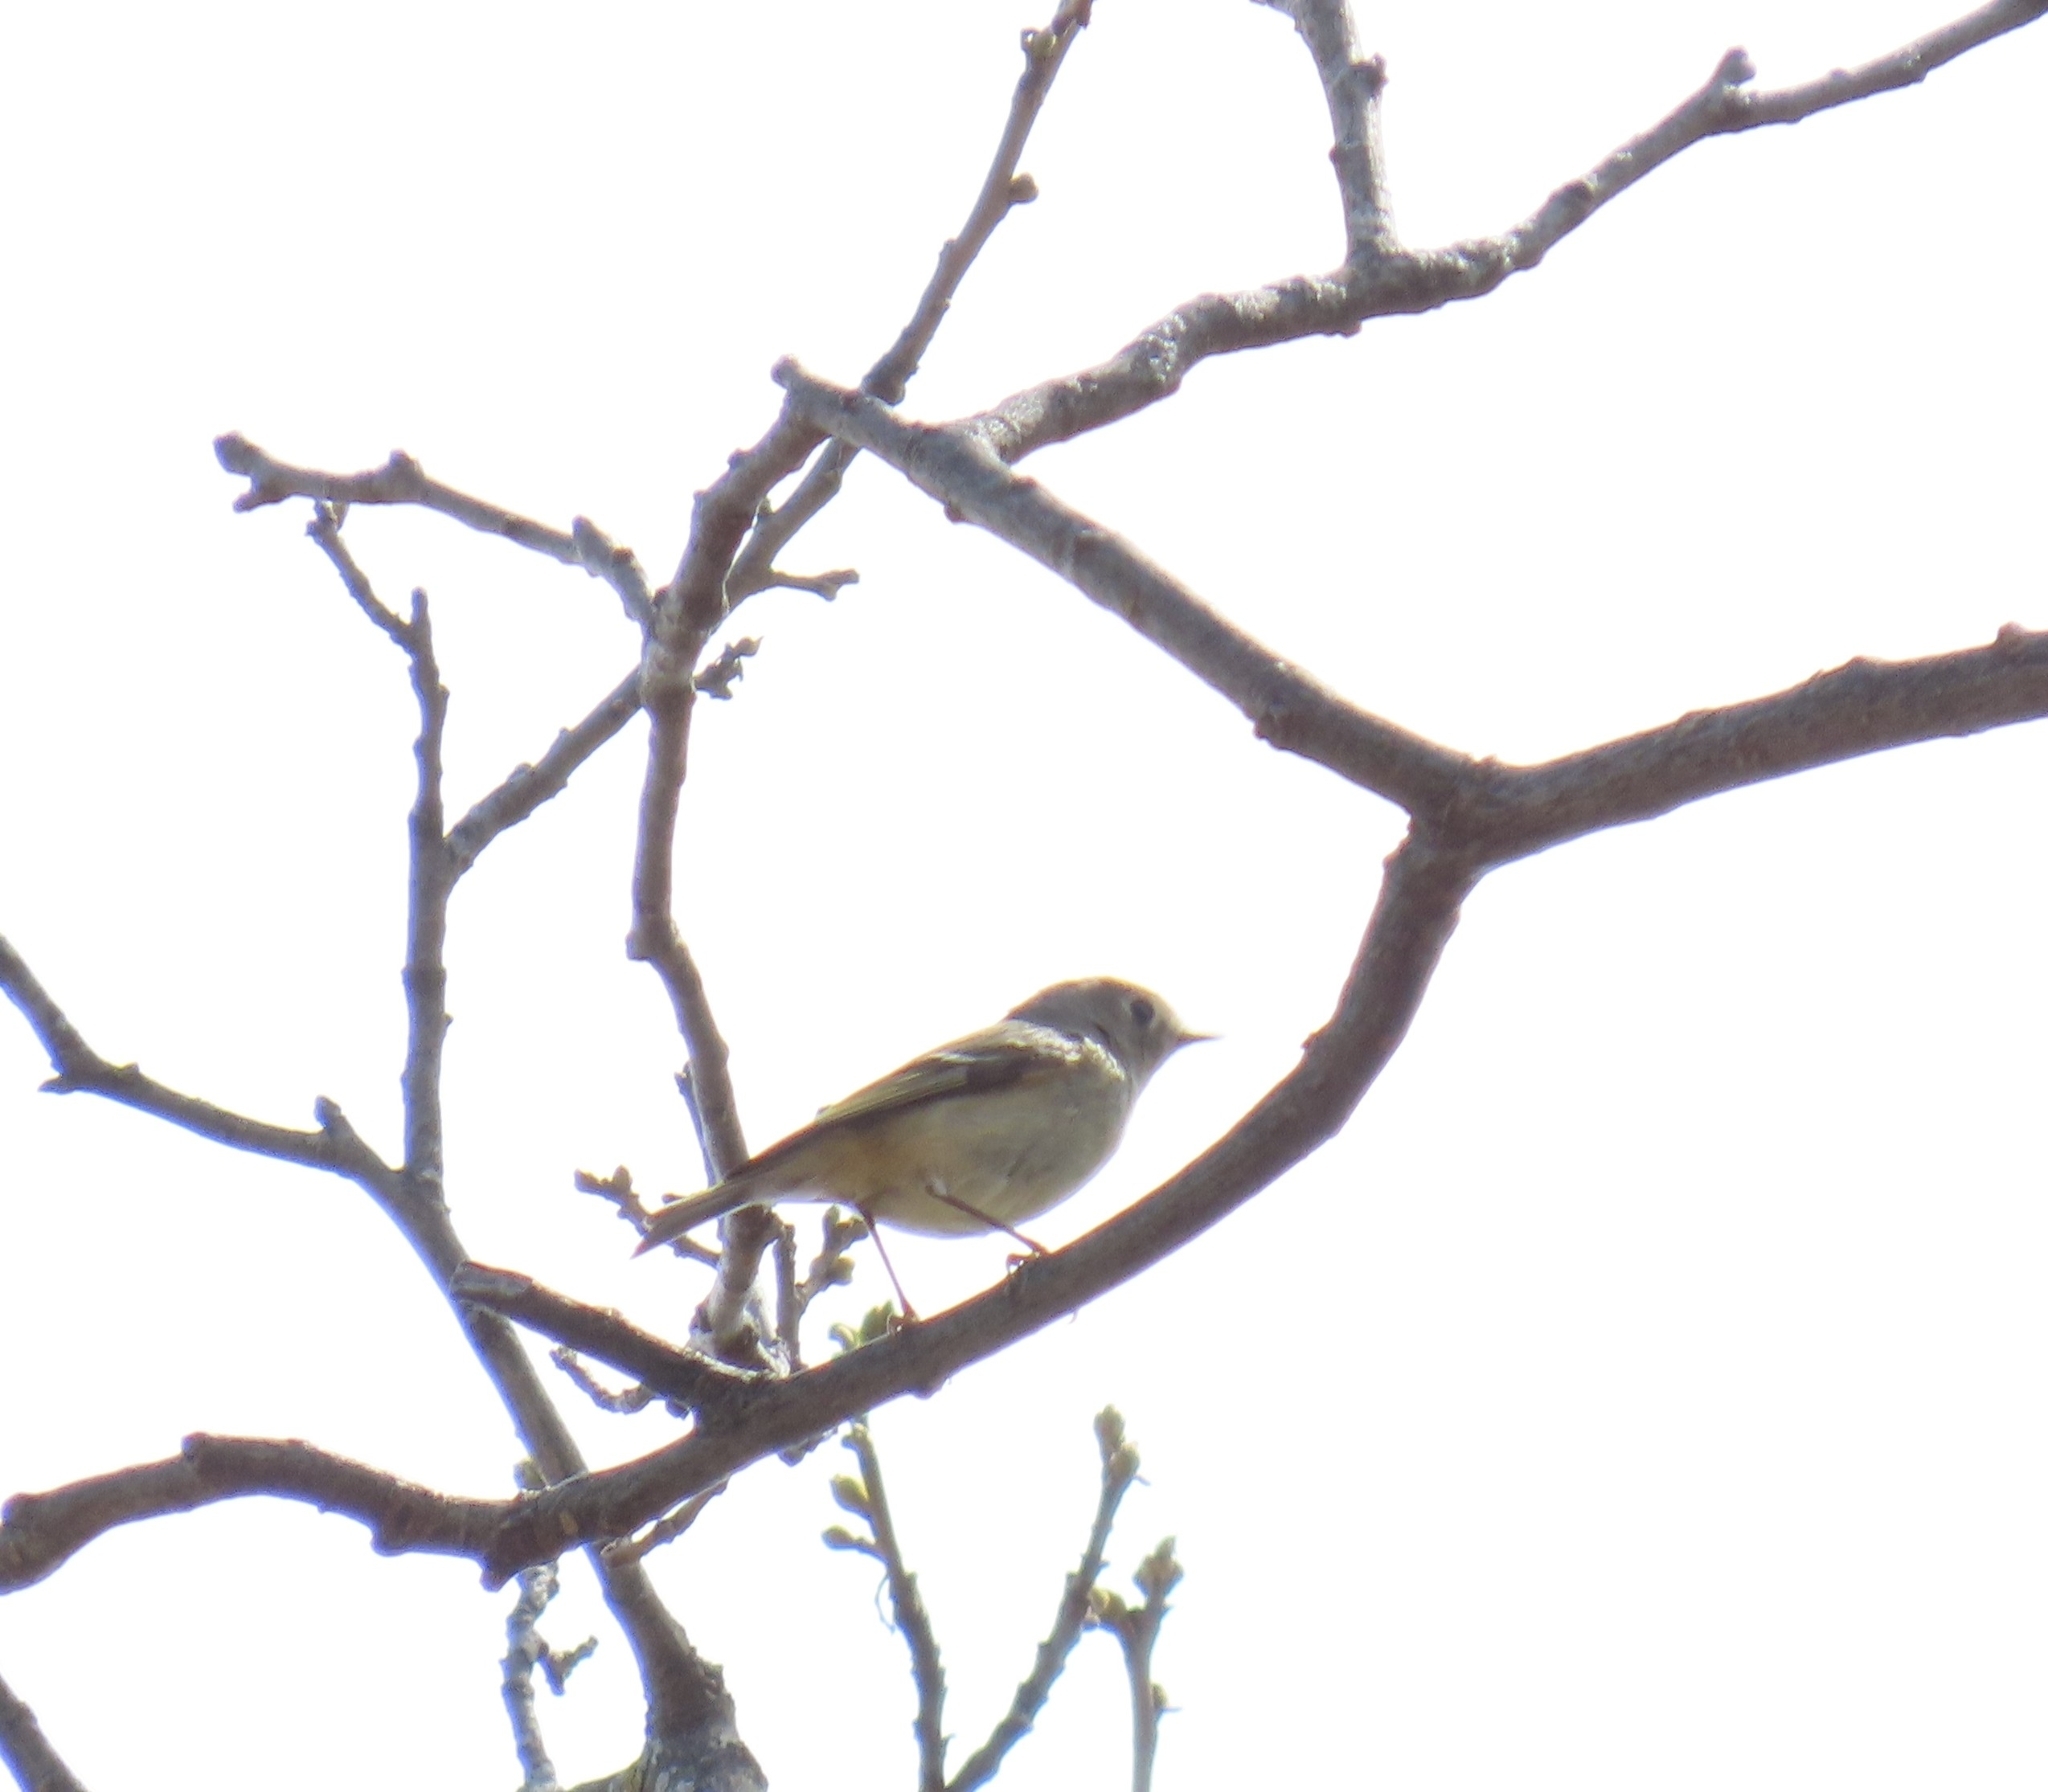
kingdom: Animalia
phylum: Chordata
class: Aves
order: Passeriformes
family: Regulidae
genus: Regulus
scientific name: Regulus calendula
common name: Ruby-crowned kinglet
